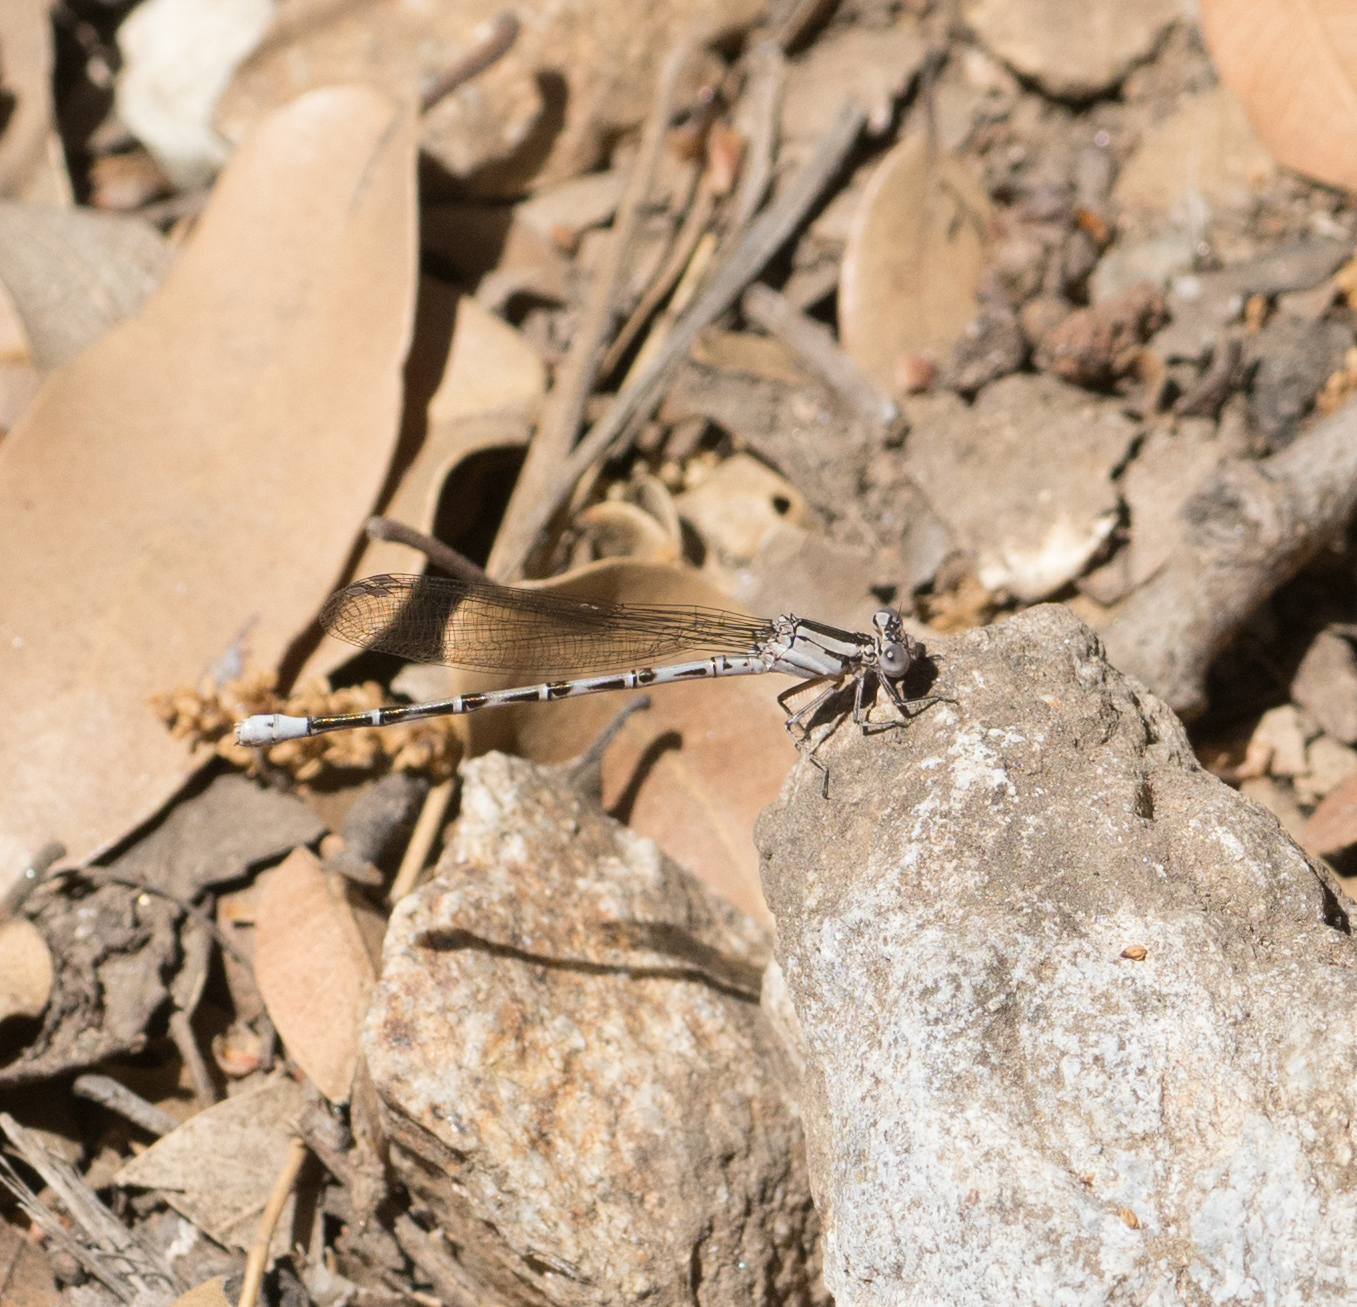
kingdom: Animalia
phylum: Arthropoda
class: Insecta
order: Odonata
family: Coenagrionidae
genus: Argia
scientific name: Argia vivida
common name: Vivid dancer
